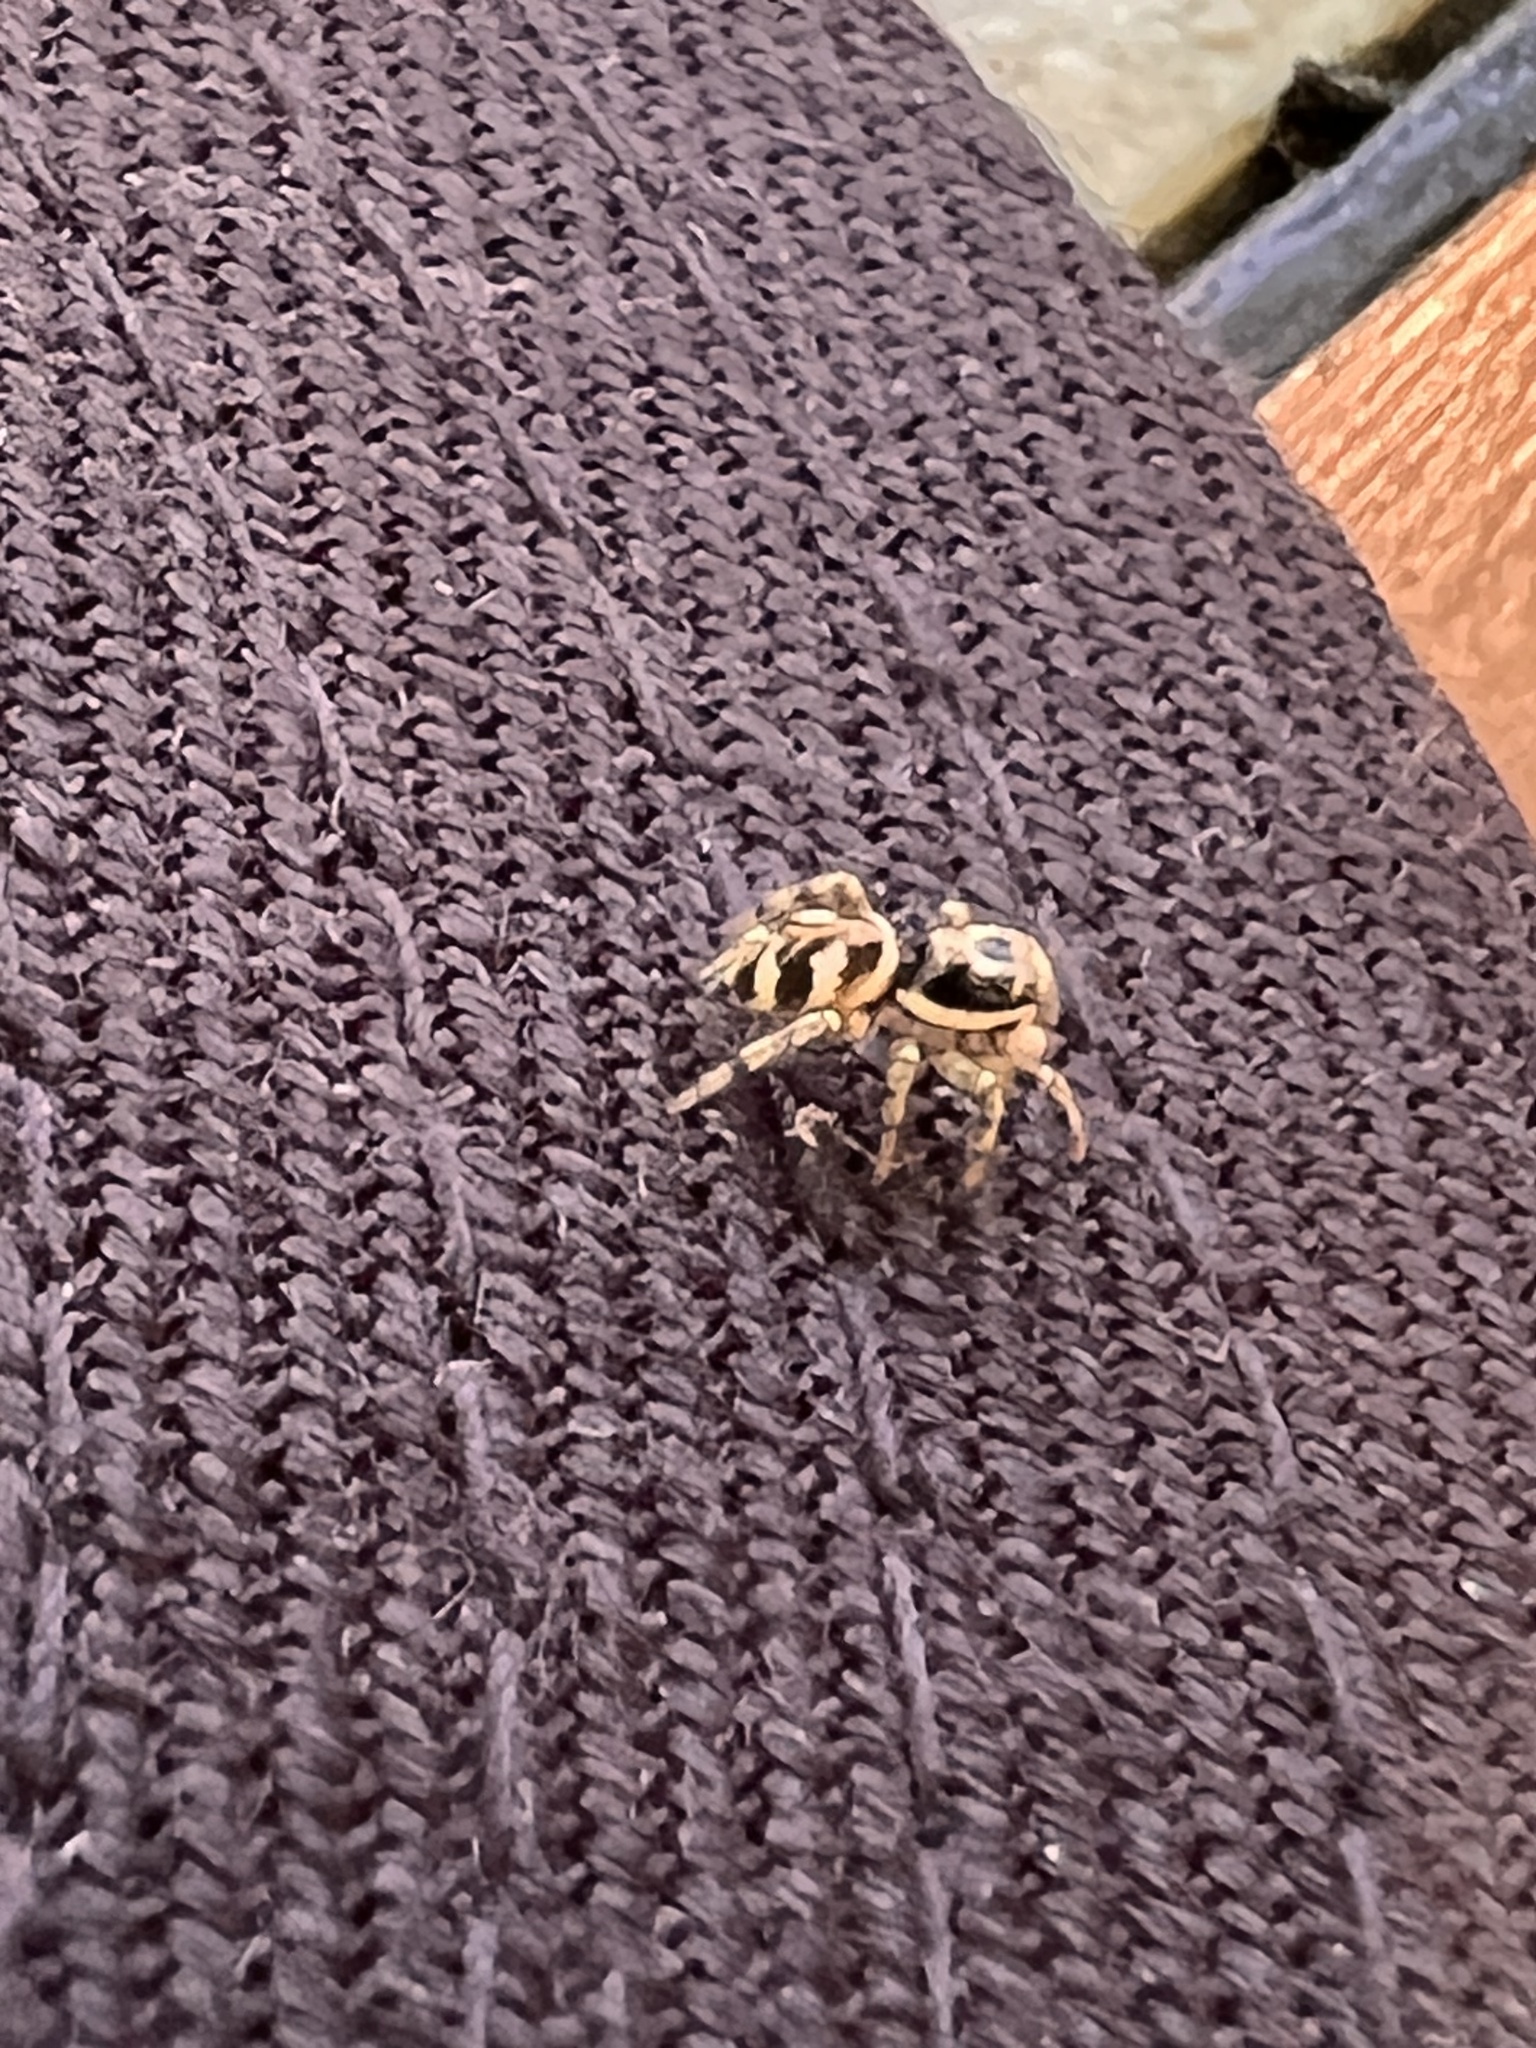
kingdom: Animalia
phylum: Arthropoda
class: Arachnida
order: Araneae
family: Salticidae
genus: Salticus
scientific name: Salticus scenicus
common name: Zebra jumper
